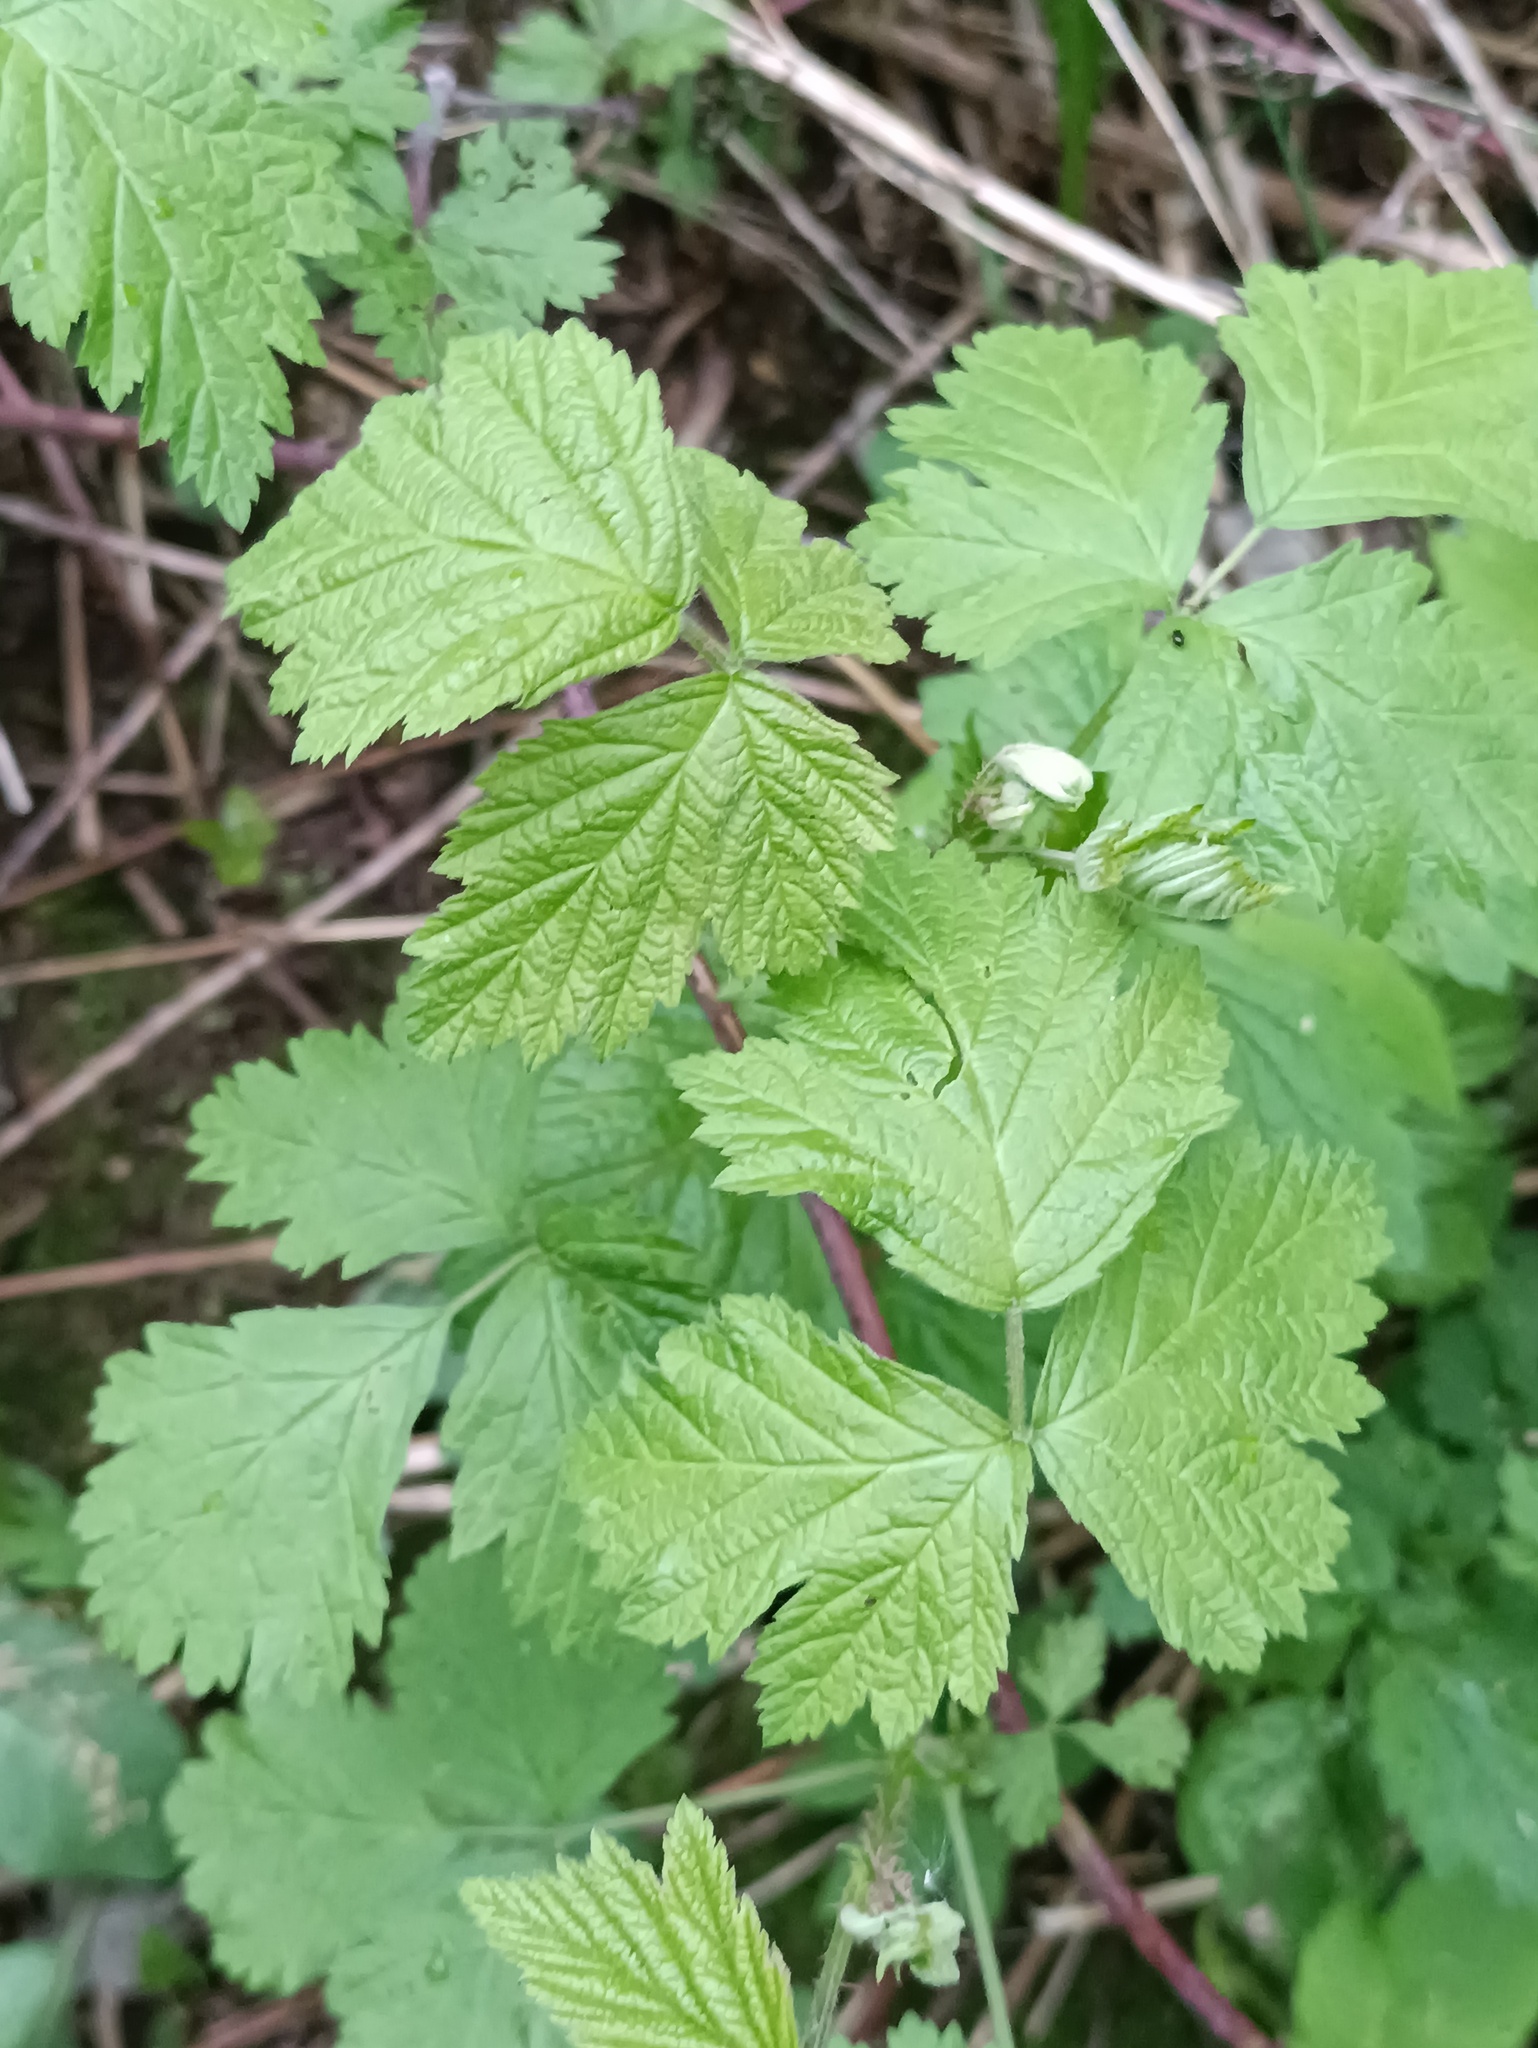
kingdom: Plantae
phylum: Tracheophyta
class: Magnoliopsida
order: Rosales
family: Rosaceae
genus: Rubus
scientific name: Rubus caesius
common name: Dewberry
